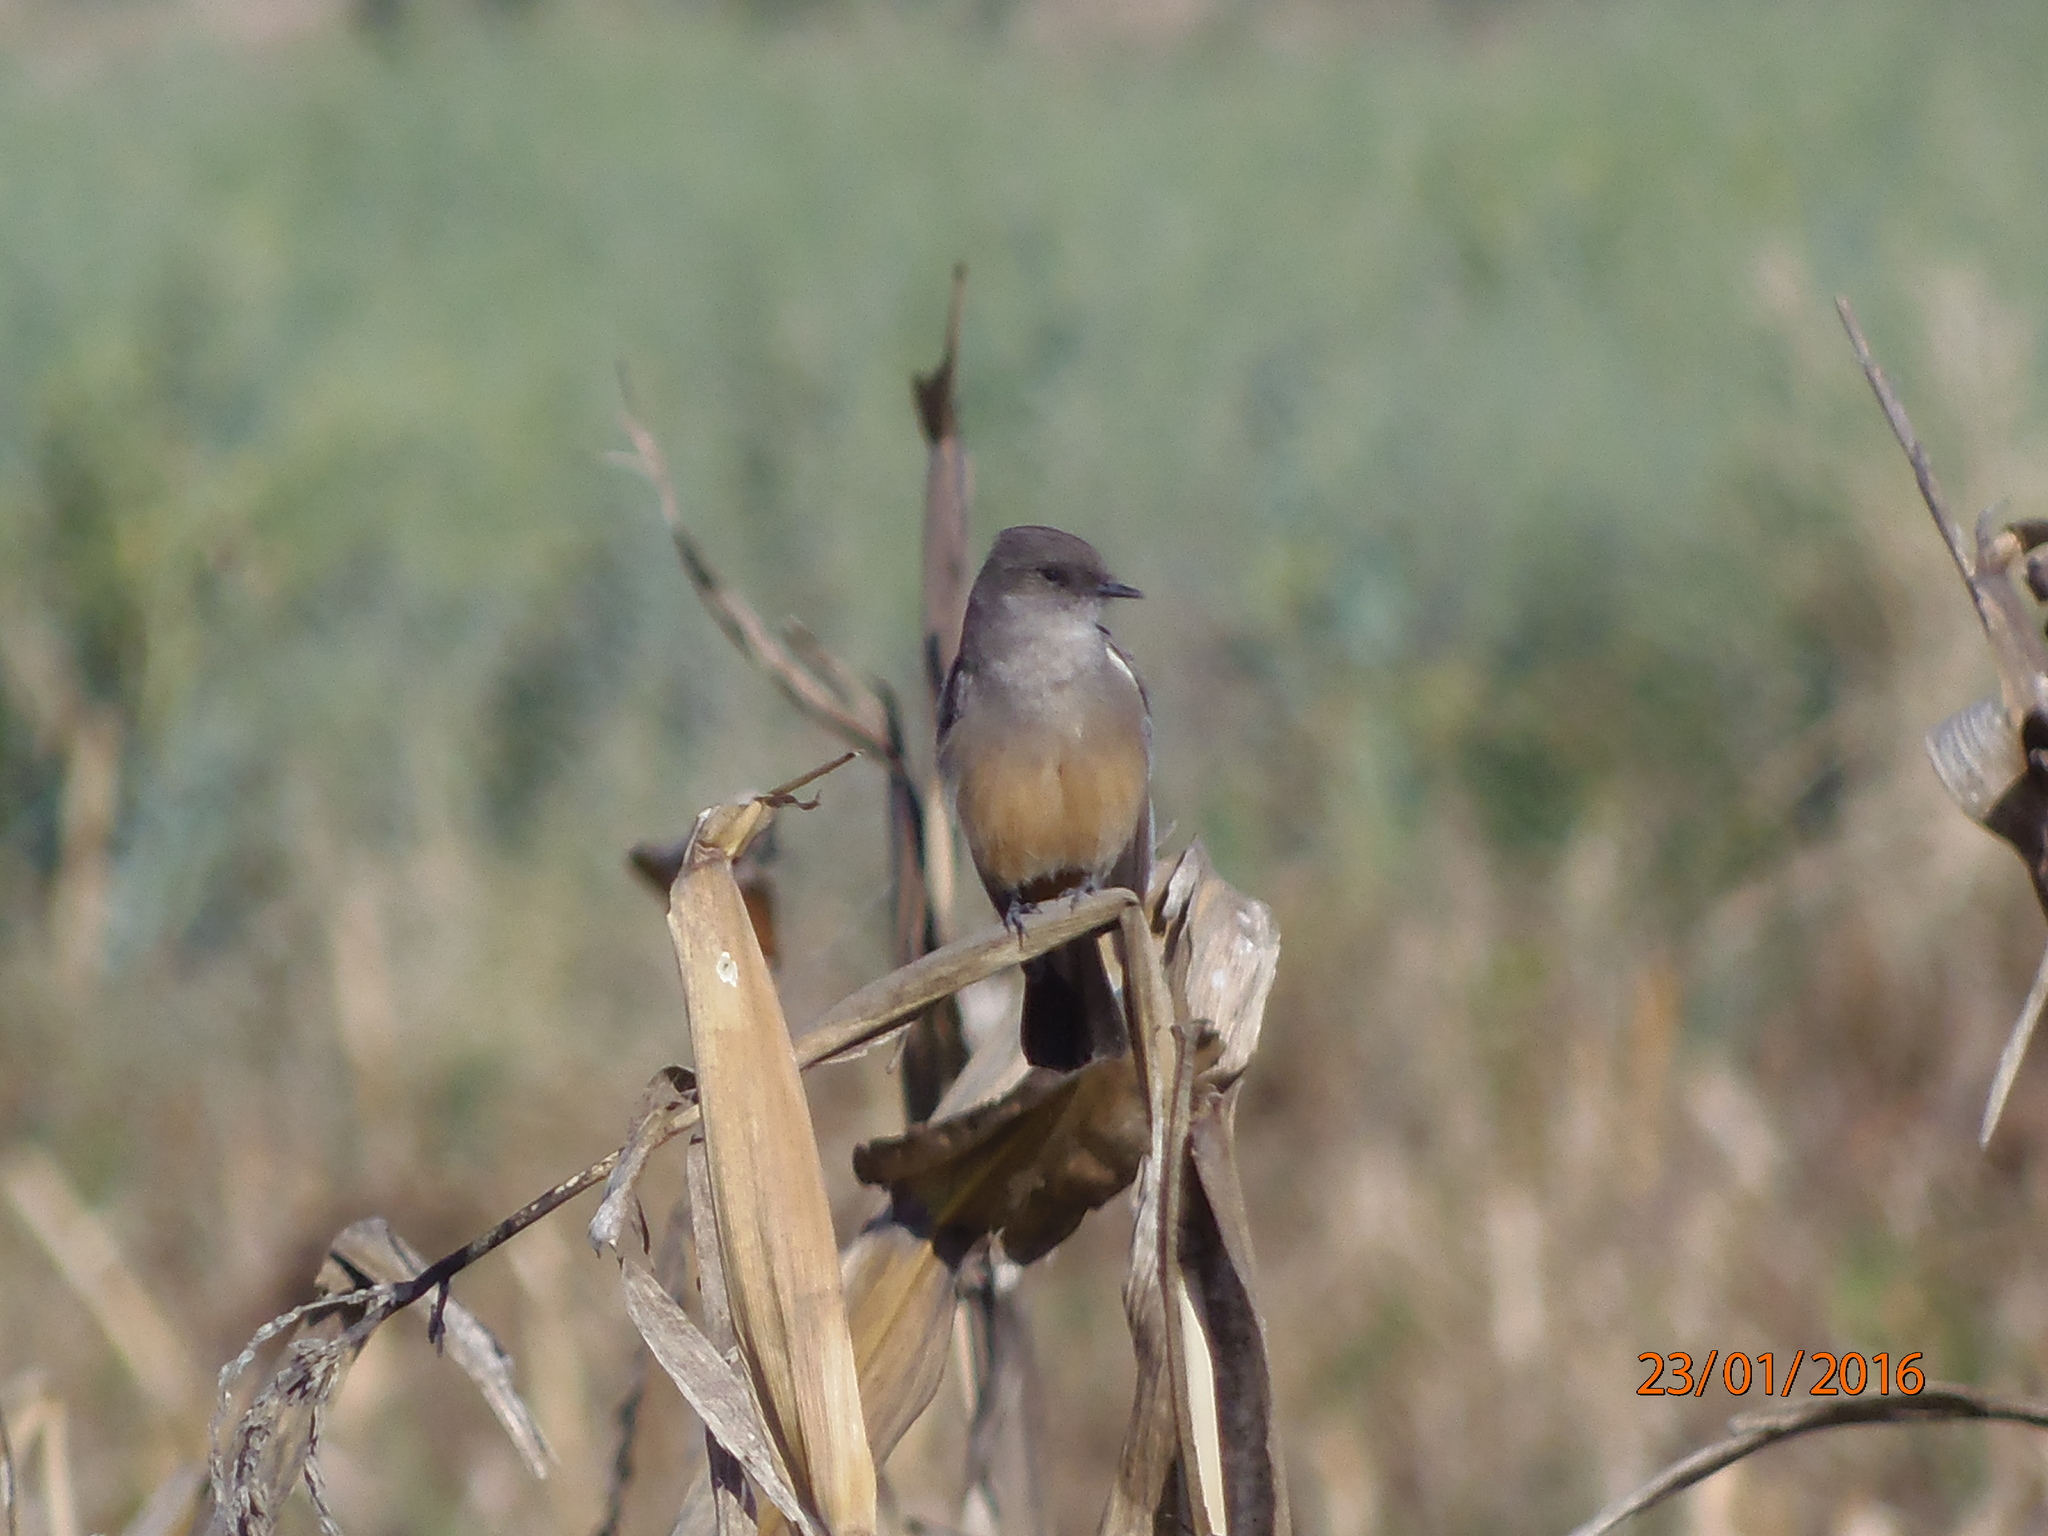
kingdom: Animalia
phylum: Chordata
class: Aves
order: Passeriformes
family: Tyrannidae
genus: Sayornis
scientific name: Sayornis saya
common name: Say's phoebe
